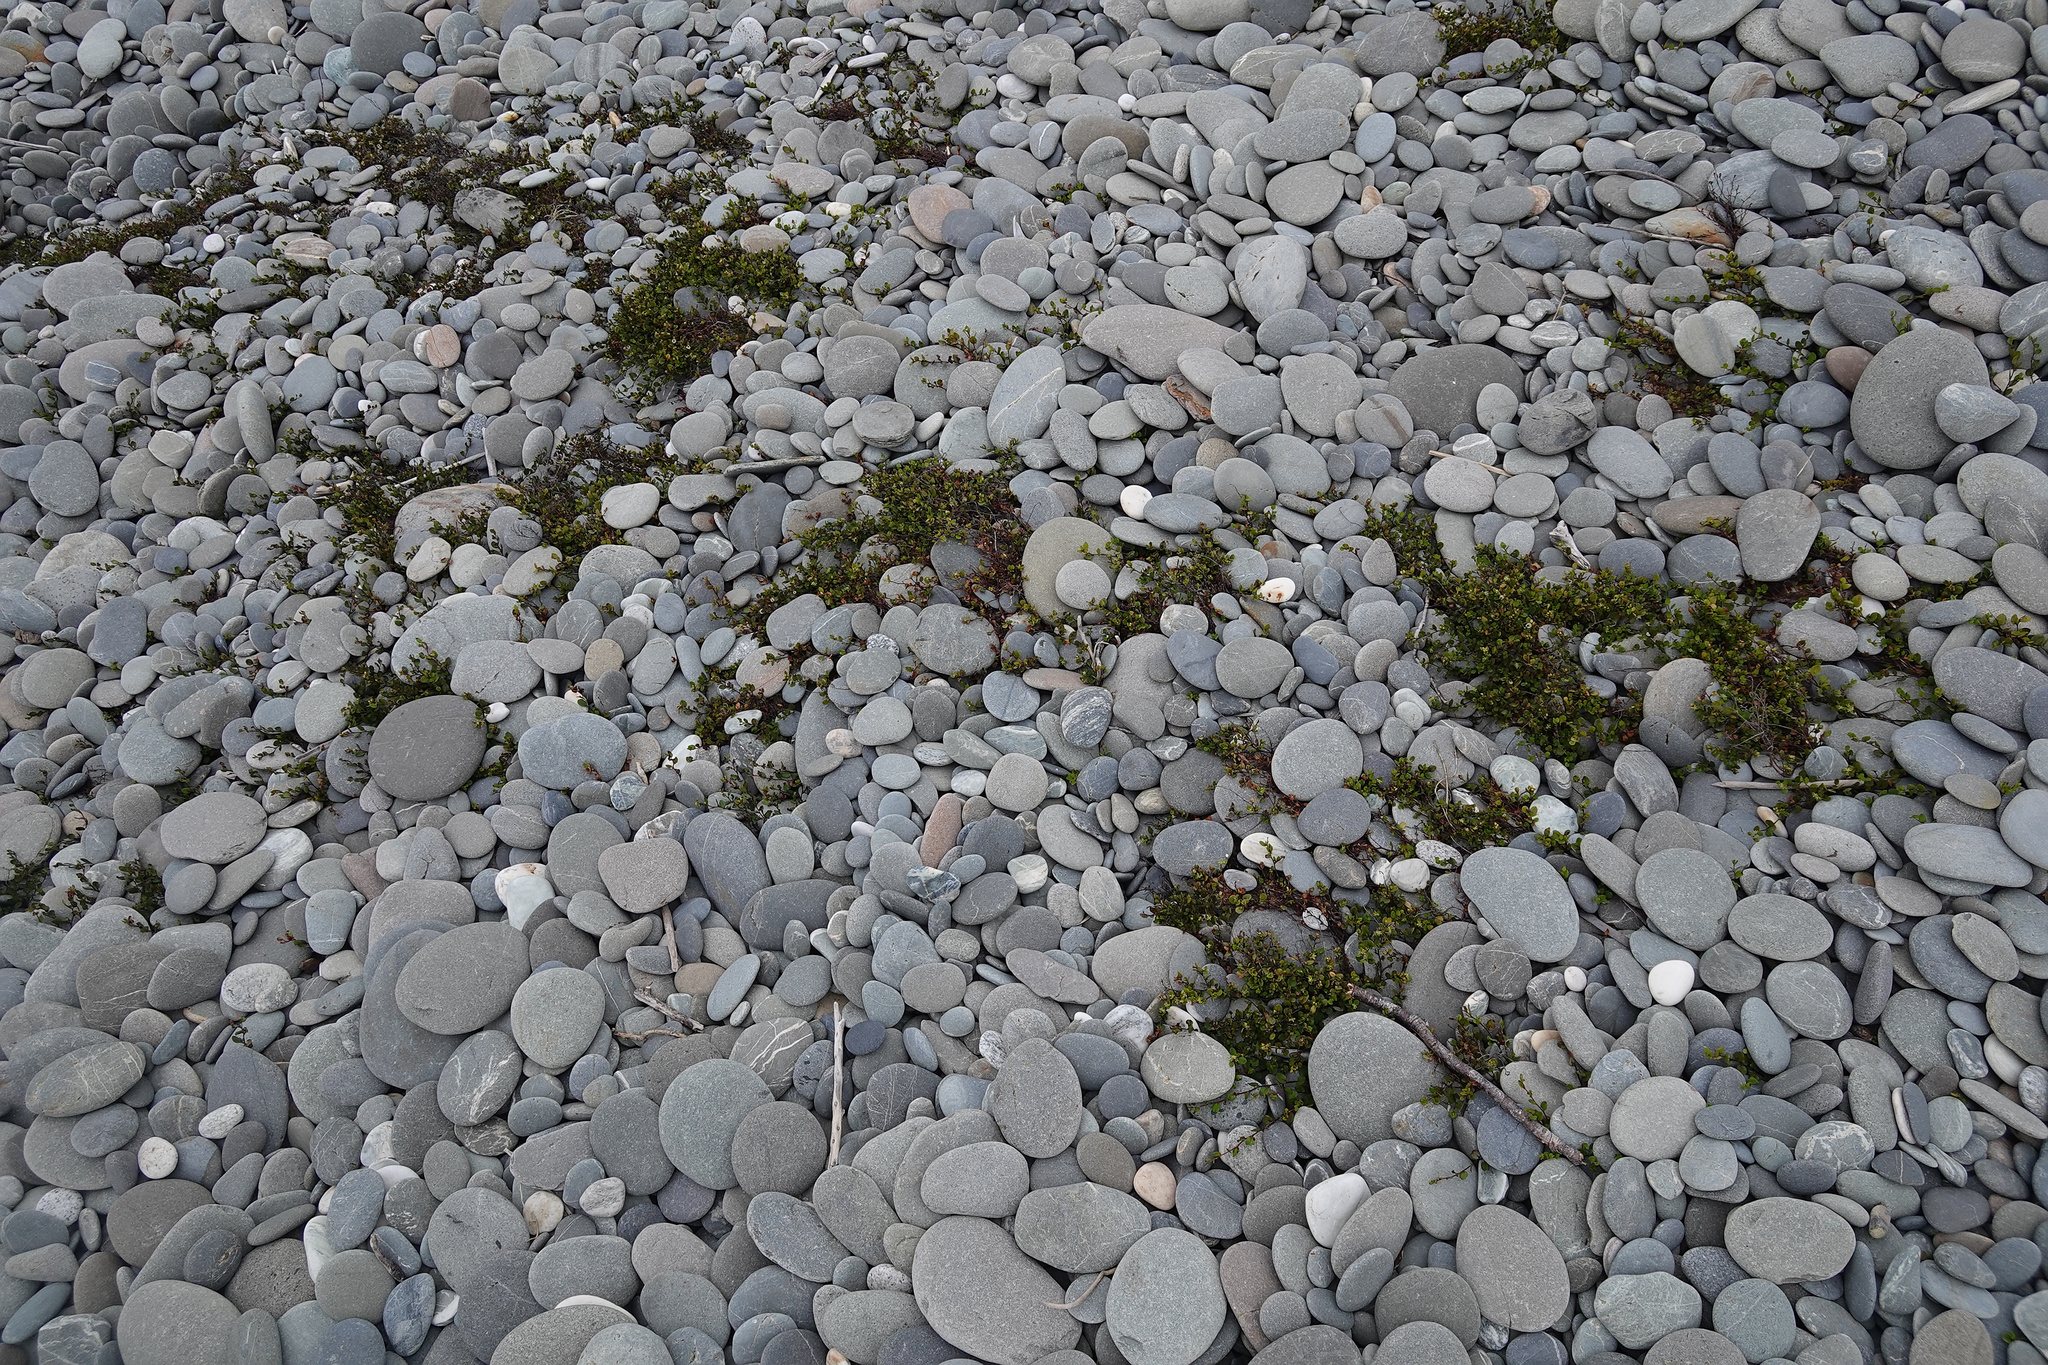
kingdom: Plantae
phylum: Tracheophyta
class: Magnoliopsida
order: Caryophyllales
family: Polygonaceae
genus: Muehlenbeckia
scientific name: Muehlenbeckia axillaris
